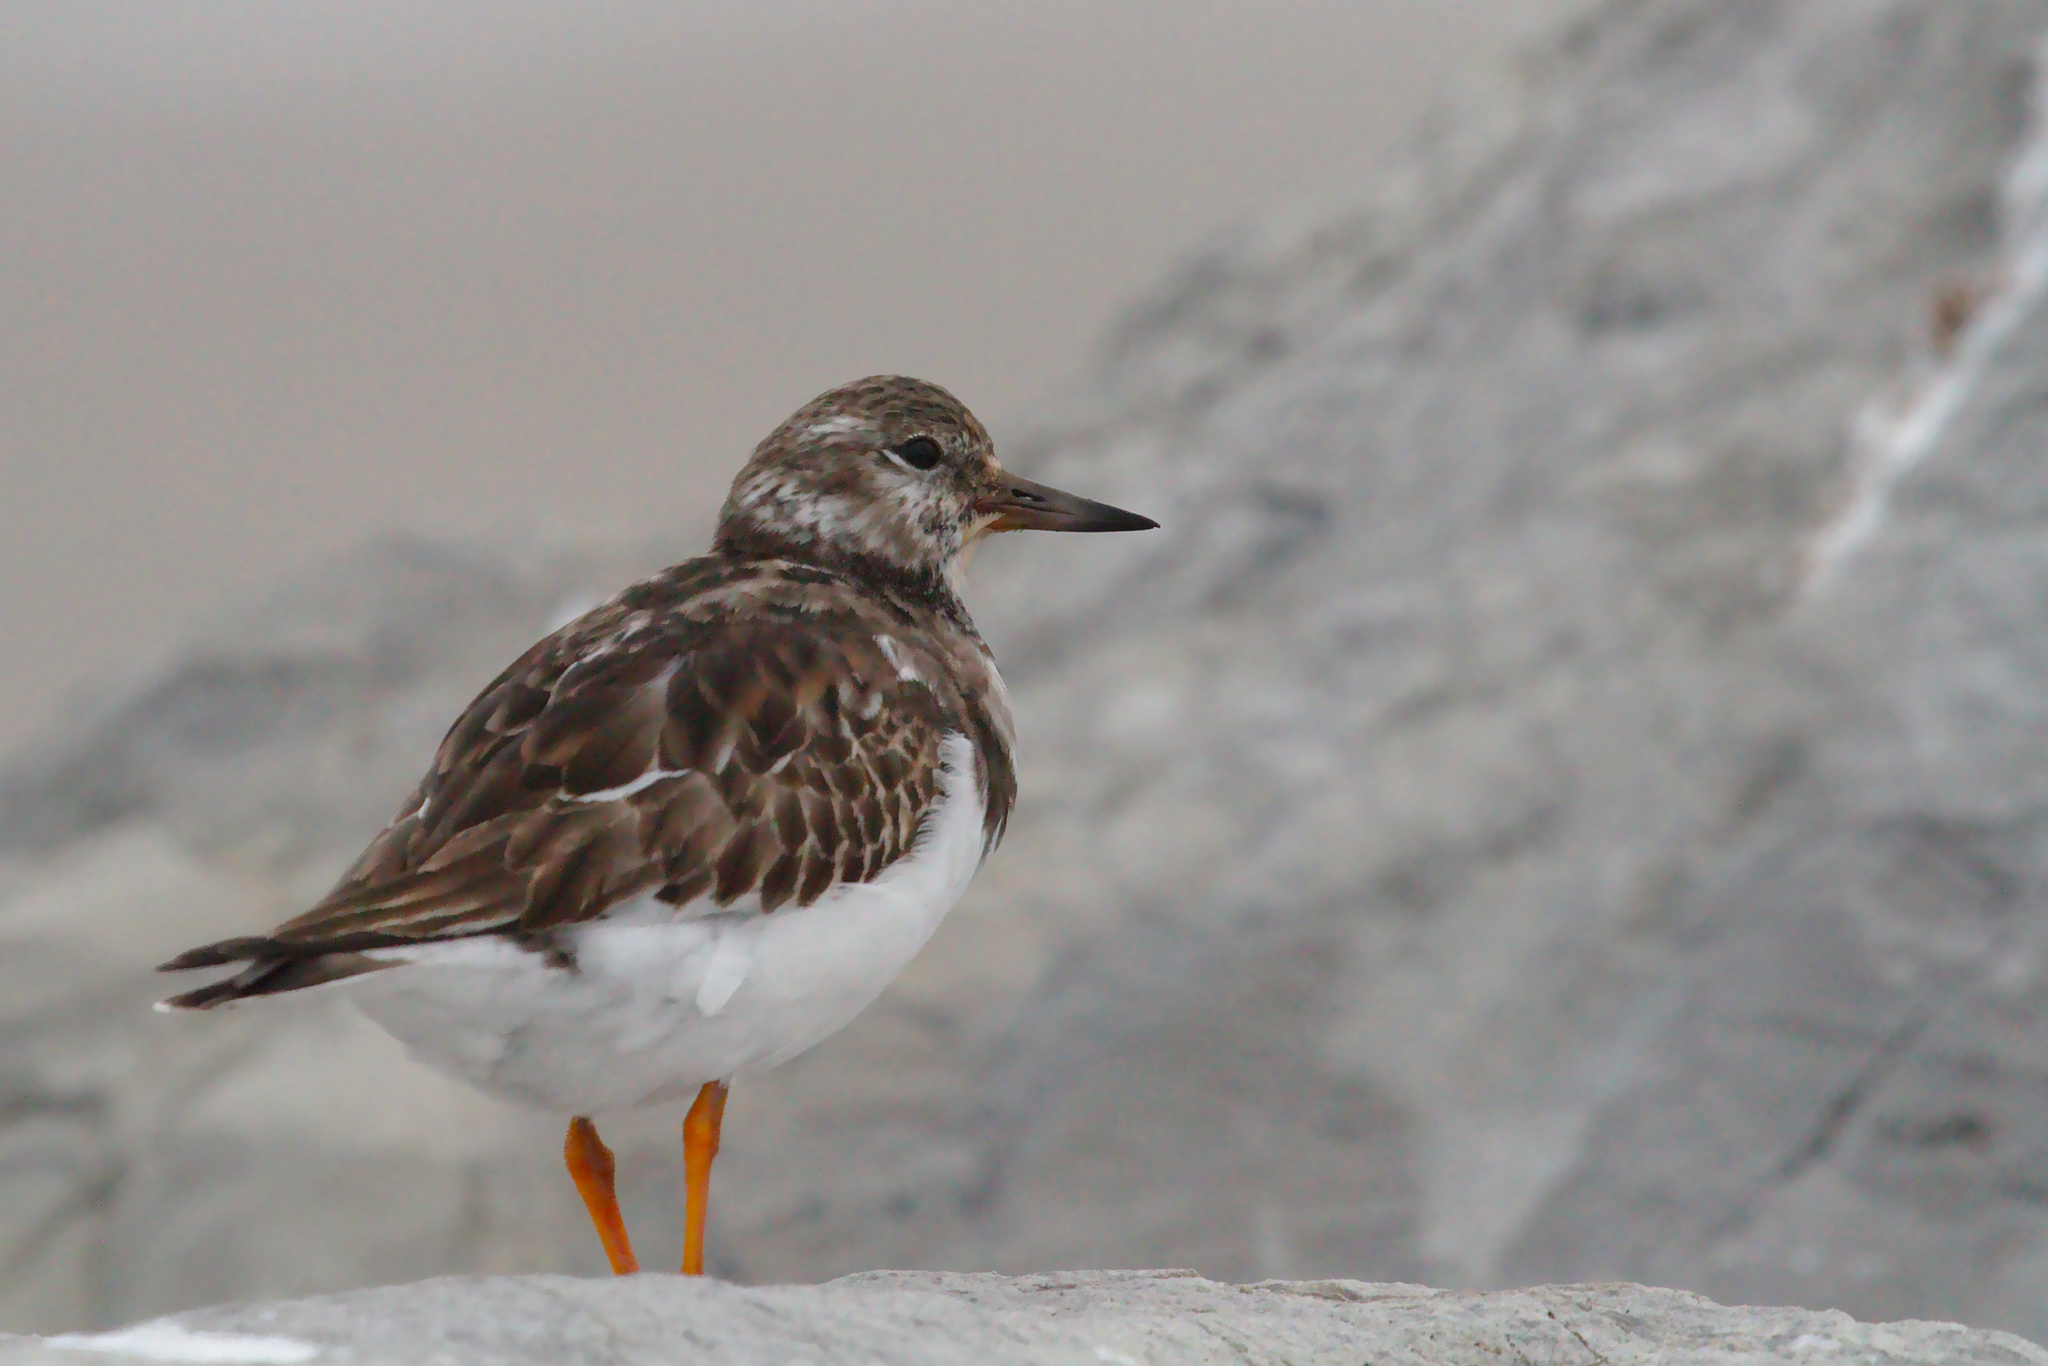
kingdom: Animalia
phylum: Chordata
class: Aves
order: Charadriiformes
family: Scolopacidae
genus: Arenaria
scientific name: Arenaria interpres
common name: Ruddy turnstone
